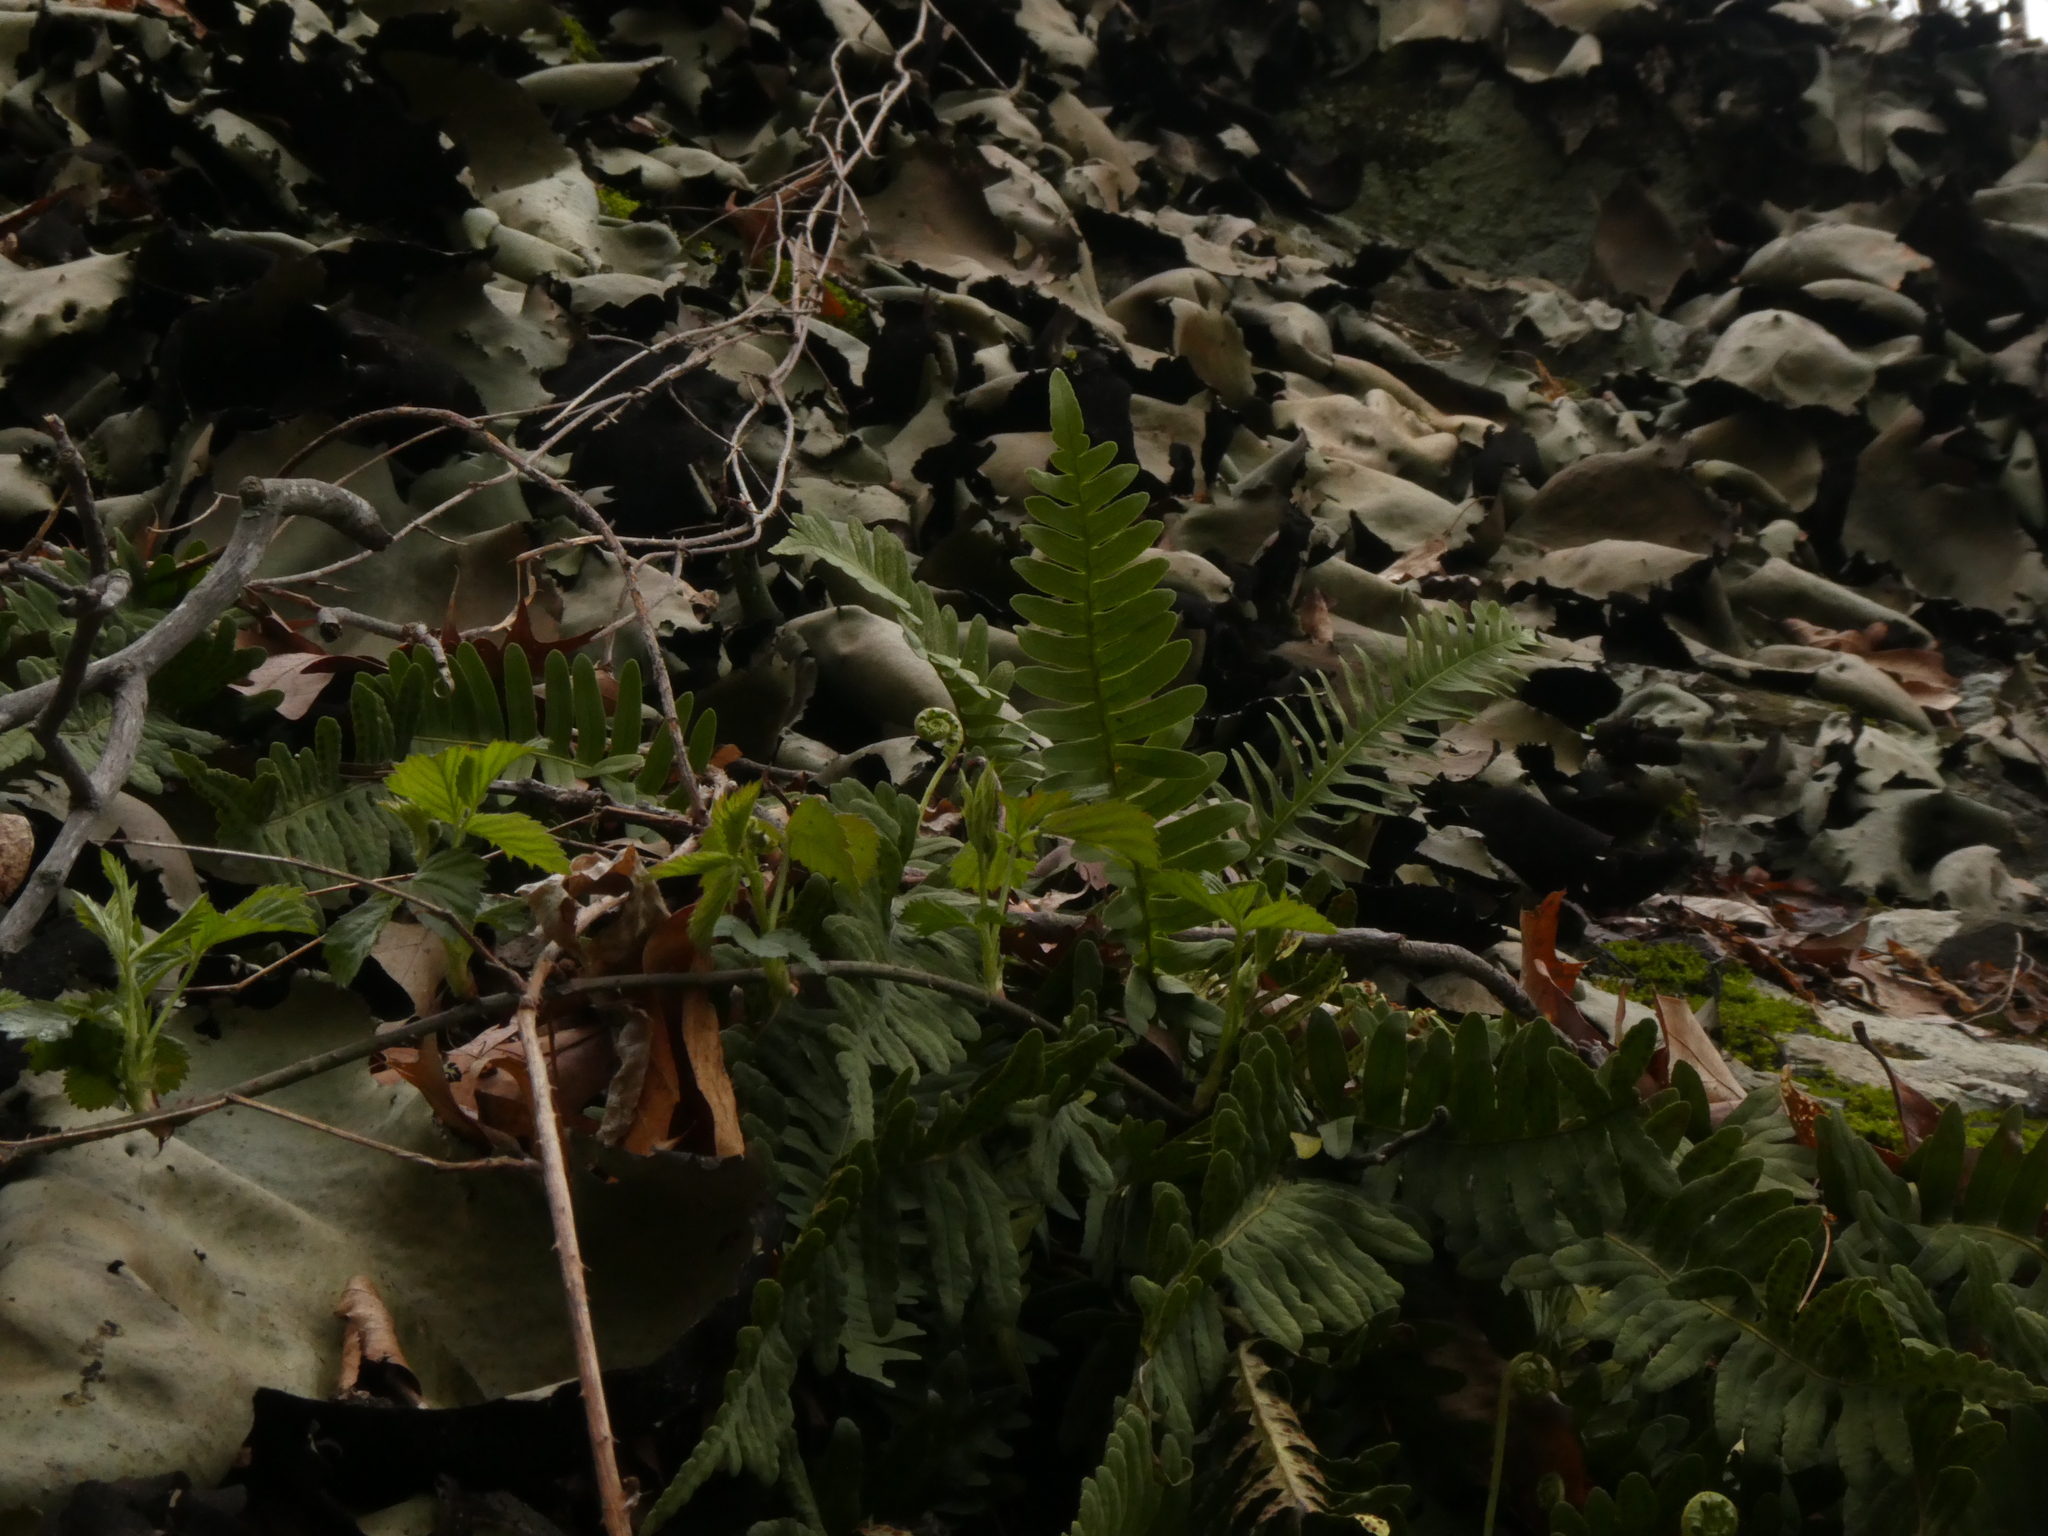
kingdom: Plantae
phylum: Tracheophyta
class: Polypodiopsida
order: Polypodiales
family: Polypodiaceae
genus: Polypodium
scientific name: Polypodium virginianum
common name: American wall fern
